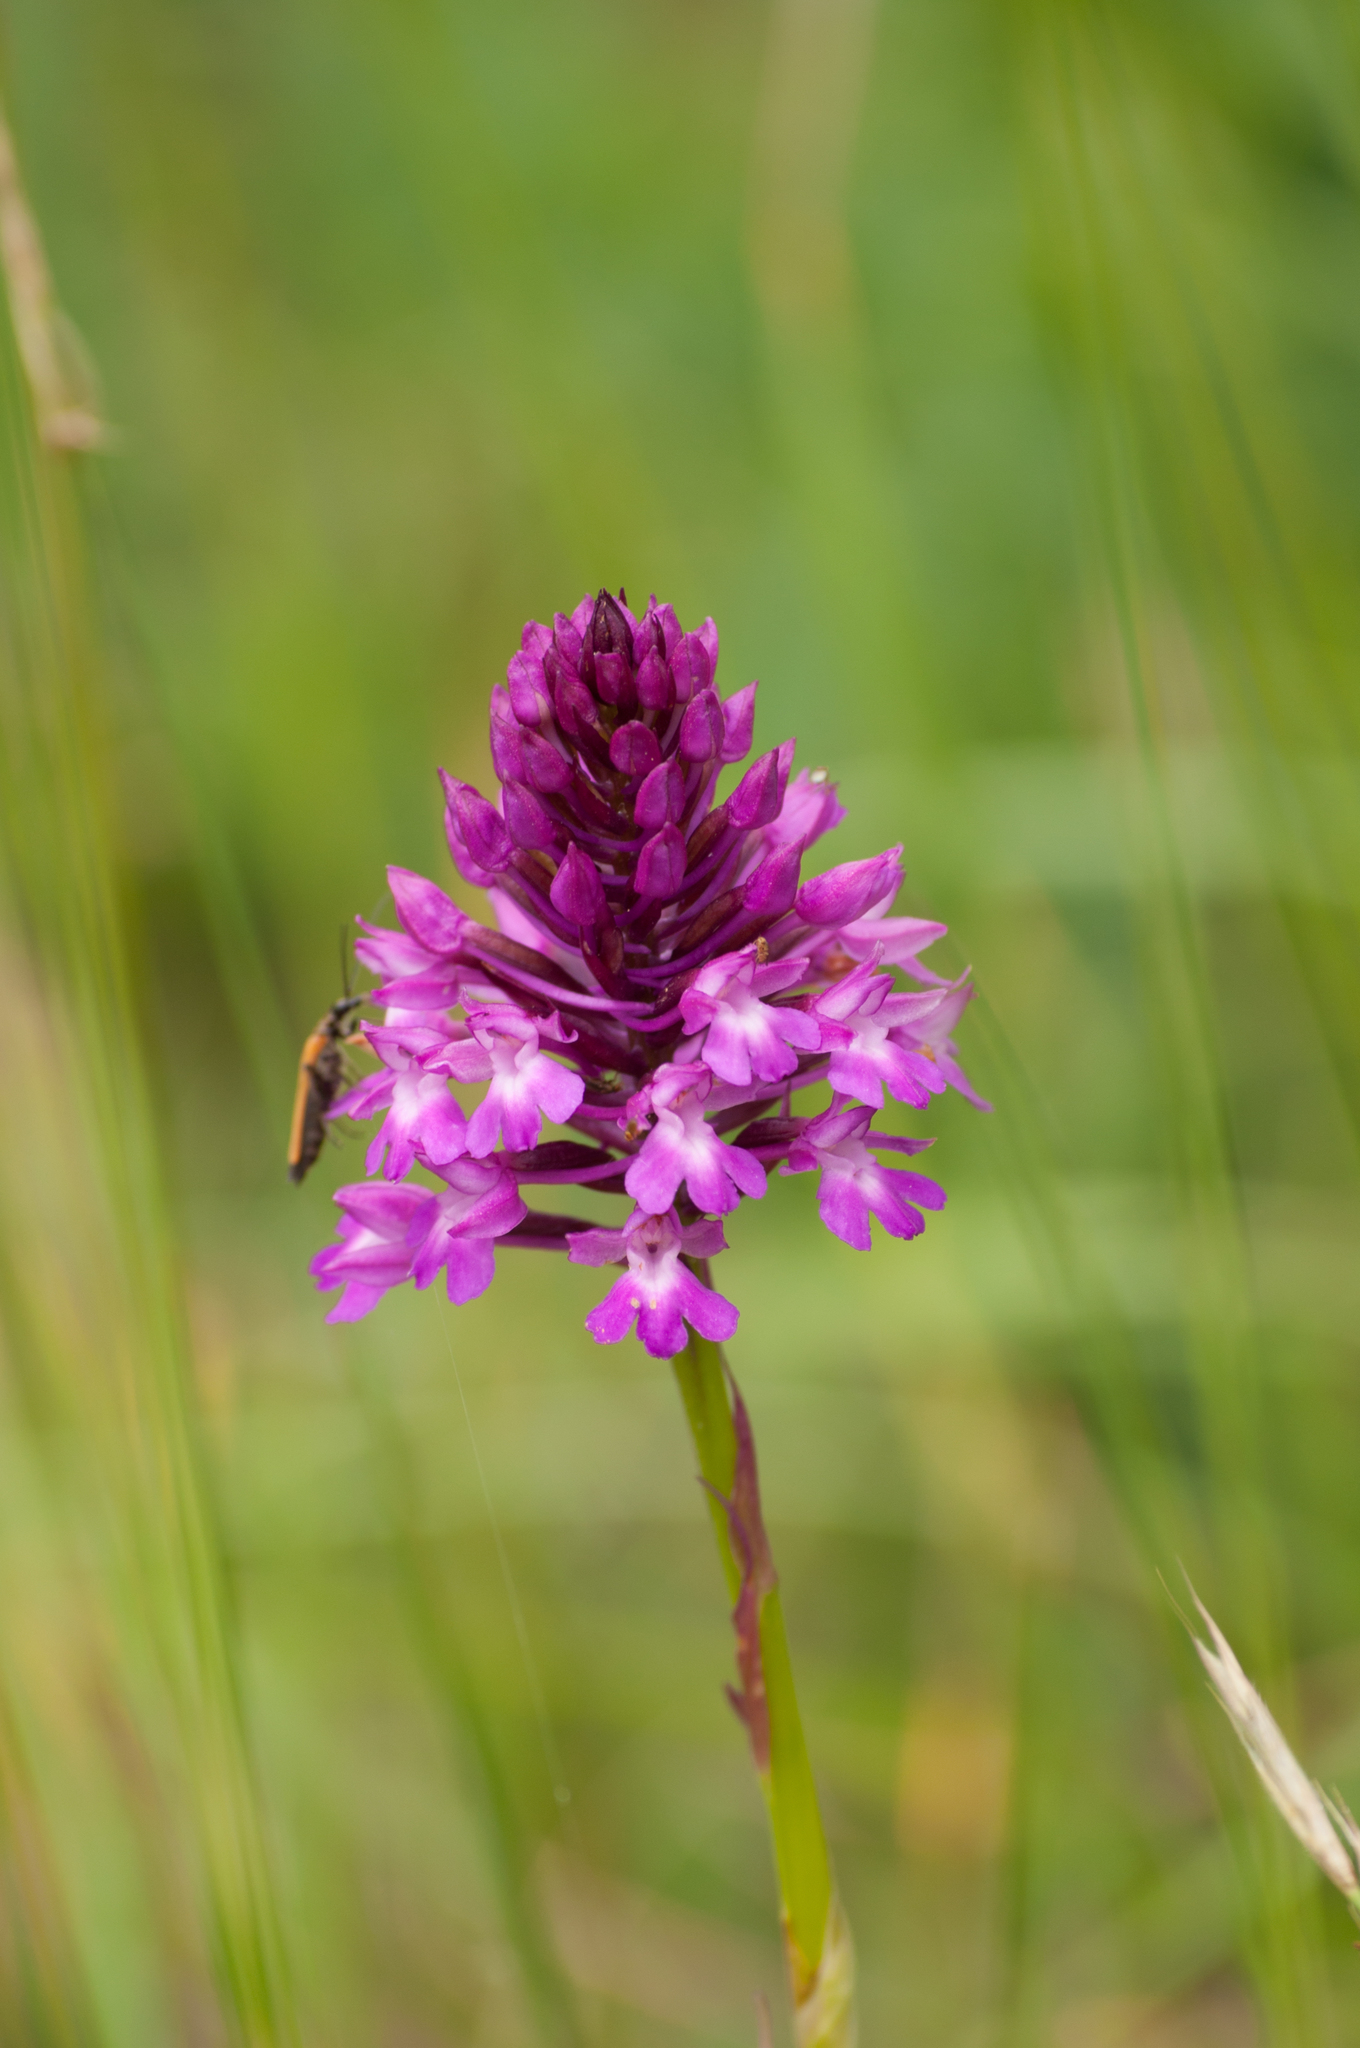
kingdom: Plantae
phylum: Tracheophyta
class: Liliopsida
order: Asparagales
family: Orchidaceae
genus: Anacamptis
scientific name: Anacamptis pyramidalis
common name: Pyramidal orchid
